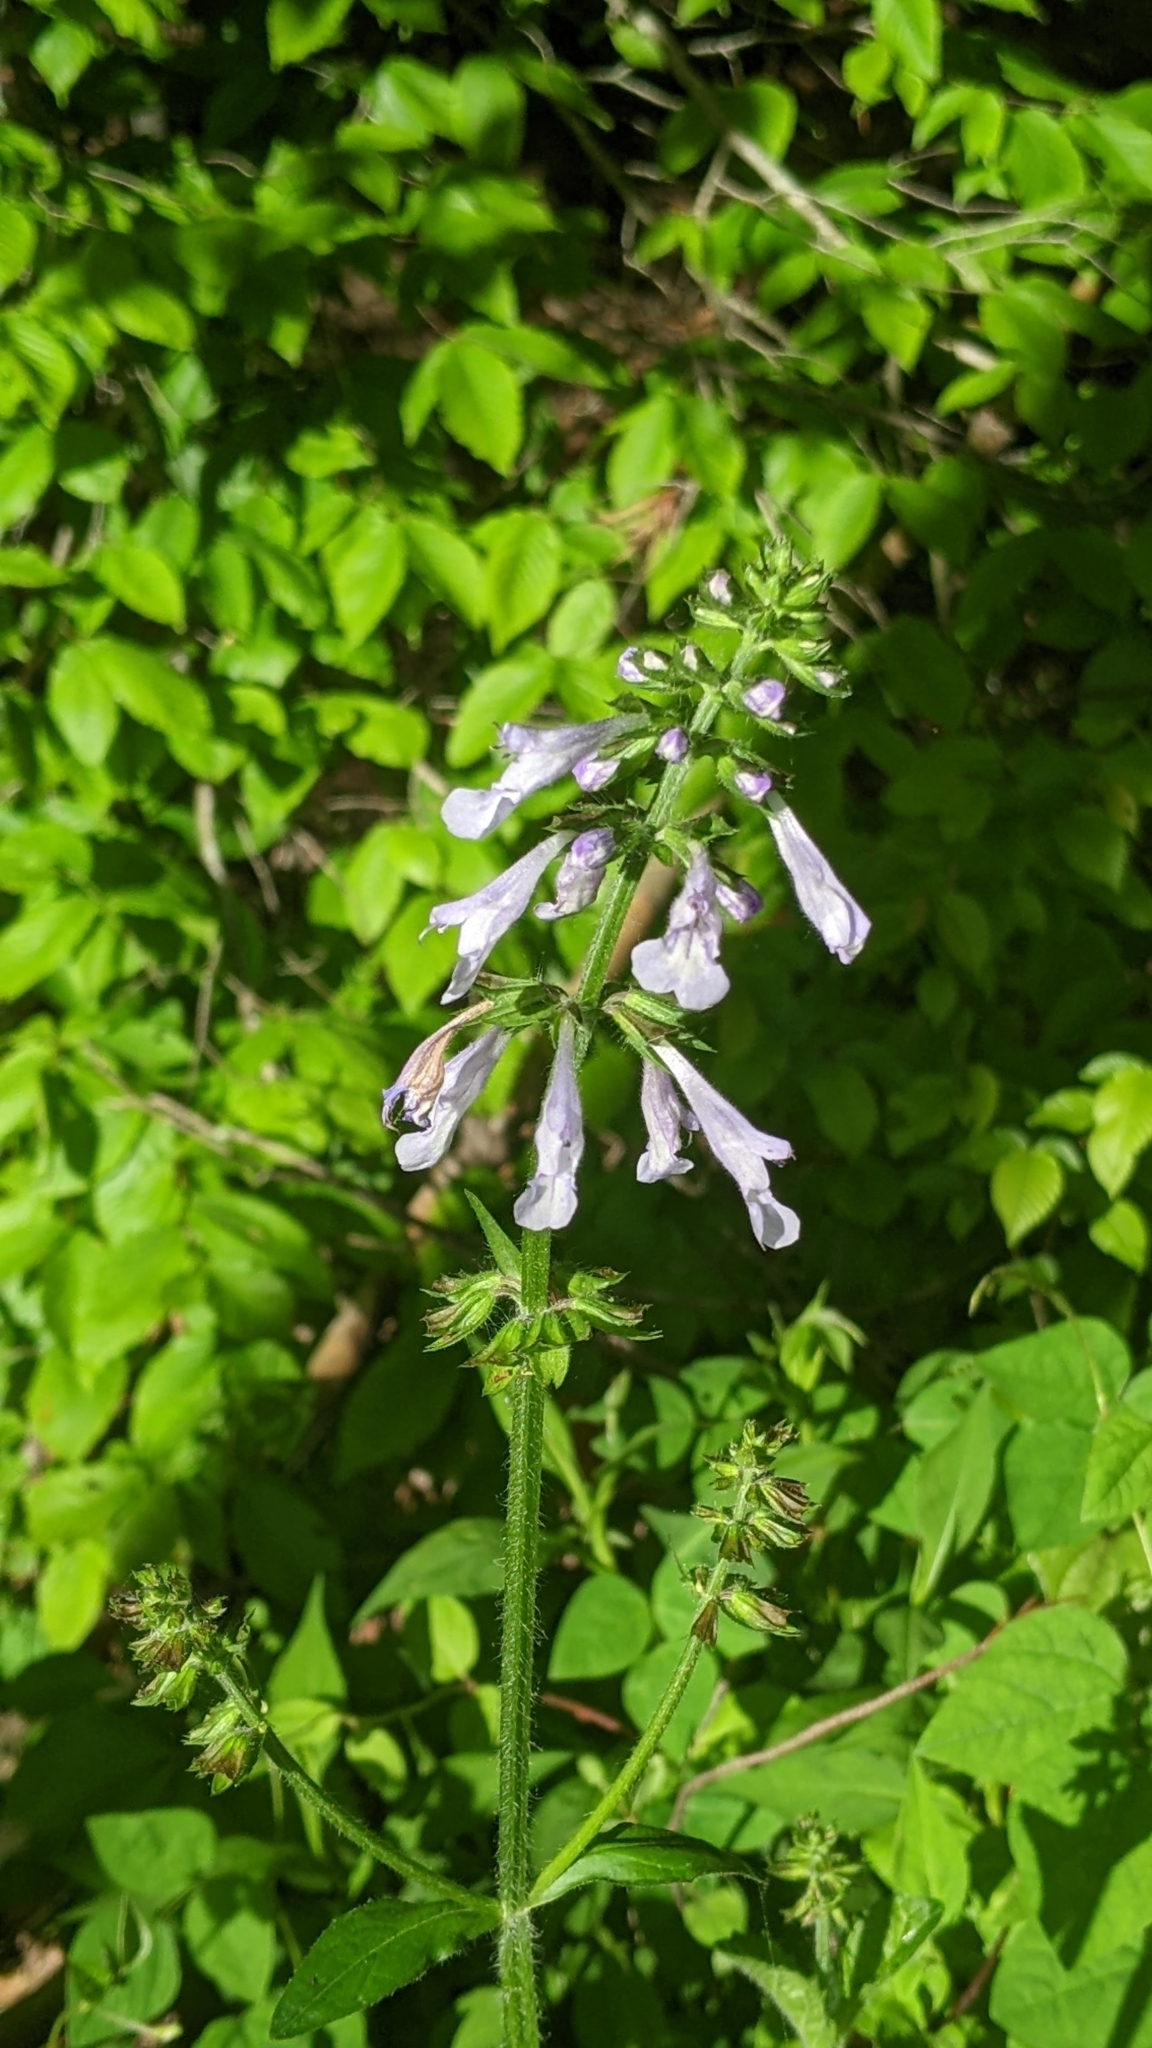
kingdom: Plantae
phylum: Tracheophyta
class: Magnoliopsida
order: Lamiales
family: Lamiaceae
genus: Salvia
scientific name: Salvia lyrata
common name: Cancerweed
